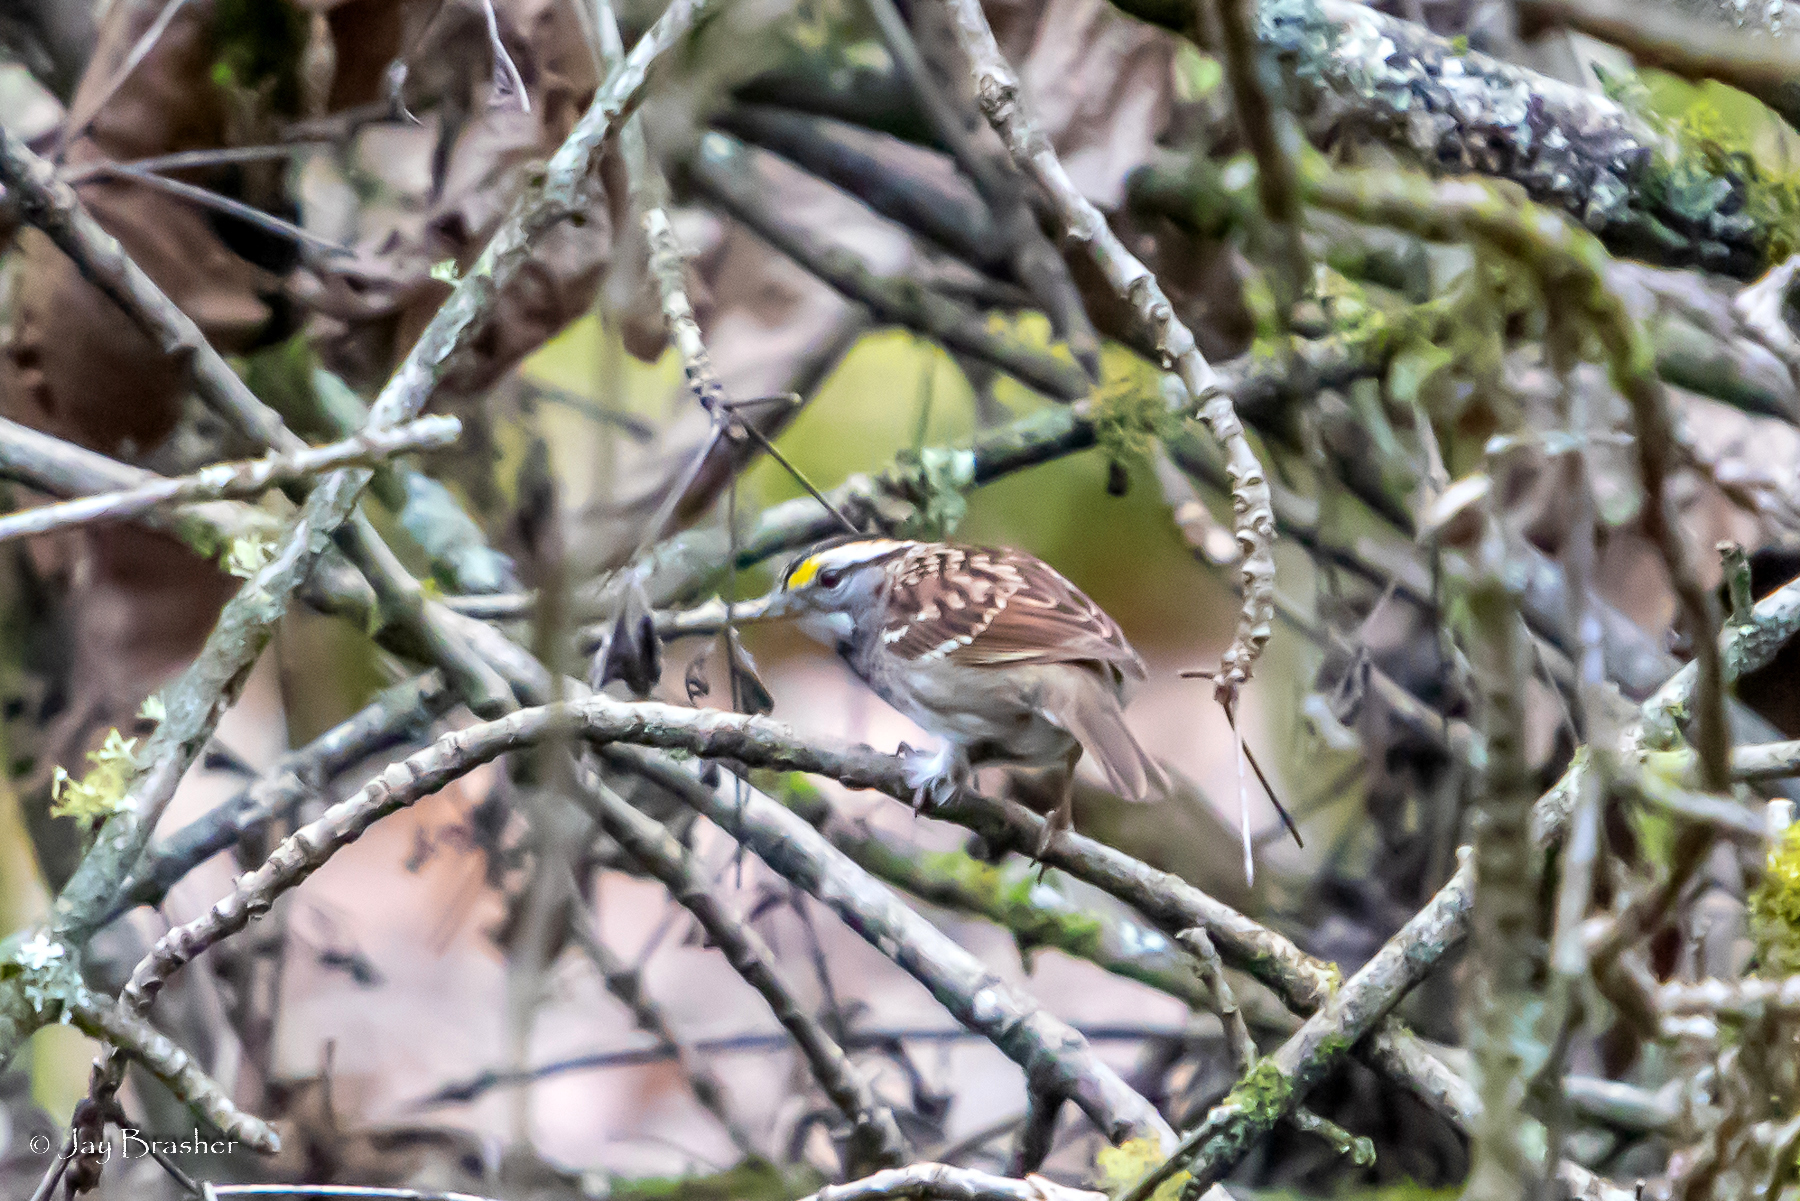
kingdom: Animalia
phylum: Chordata
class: Aves
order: Passeriformes
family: Passerellidae
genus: Zonotrichia
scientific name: Zonotrichia albicollis
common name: White-throated sparrow
